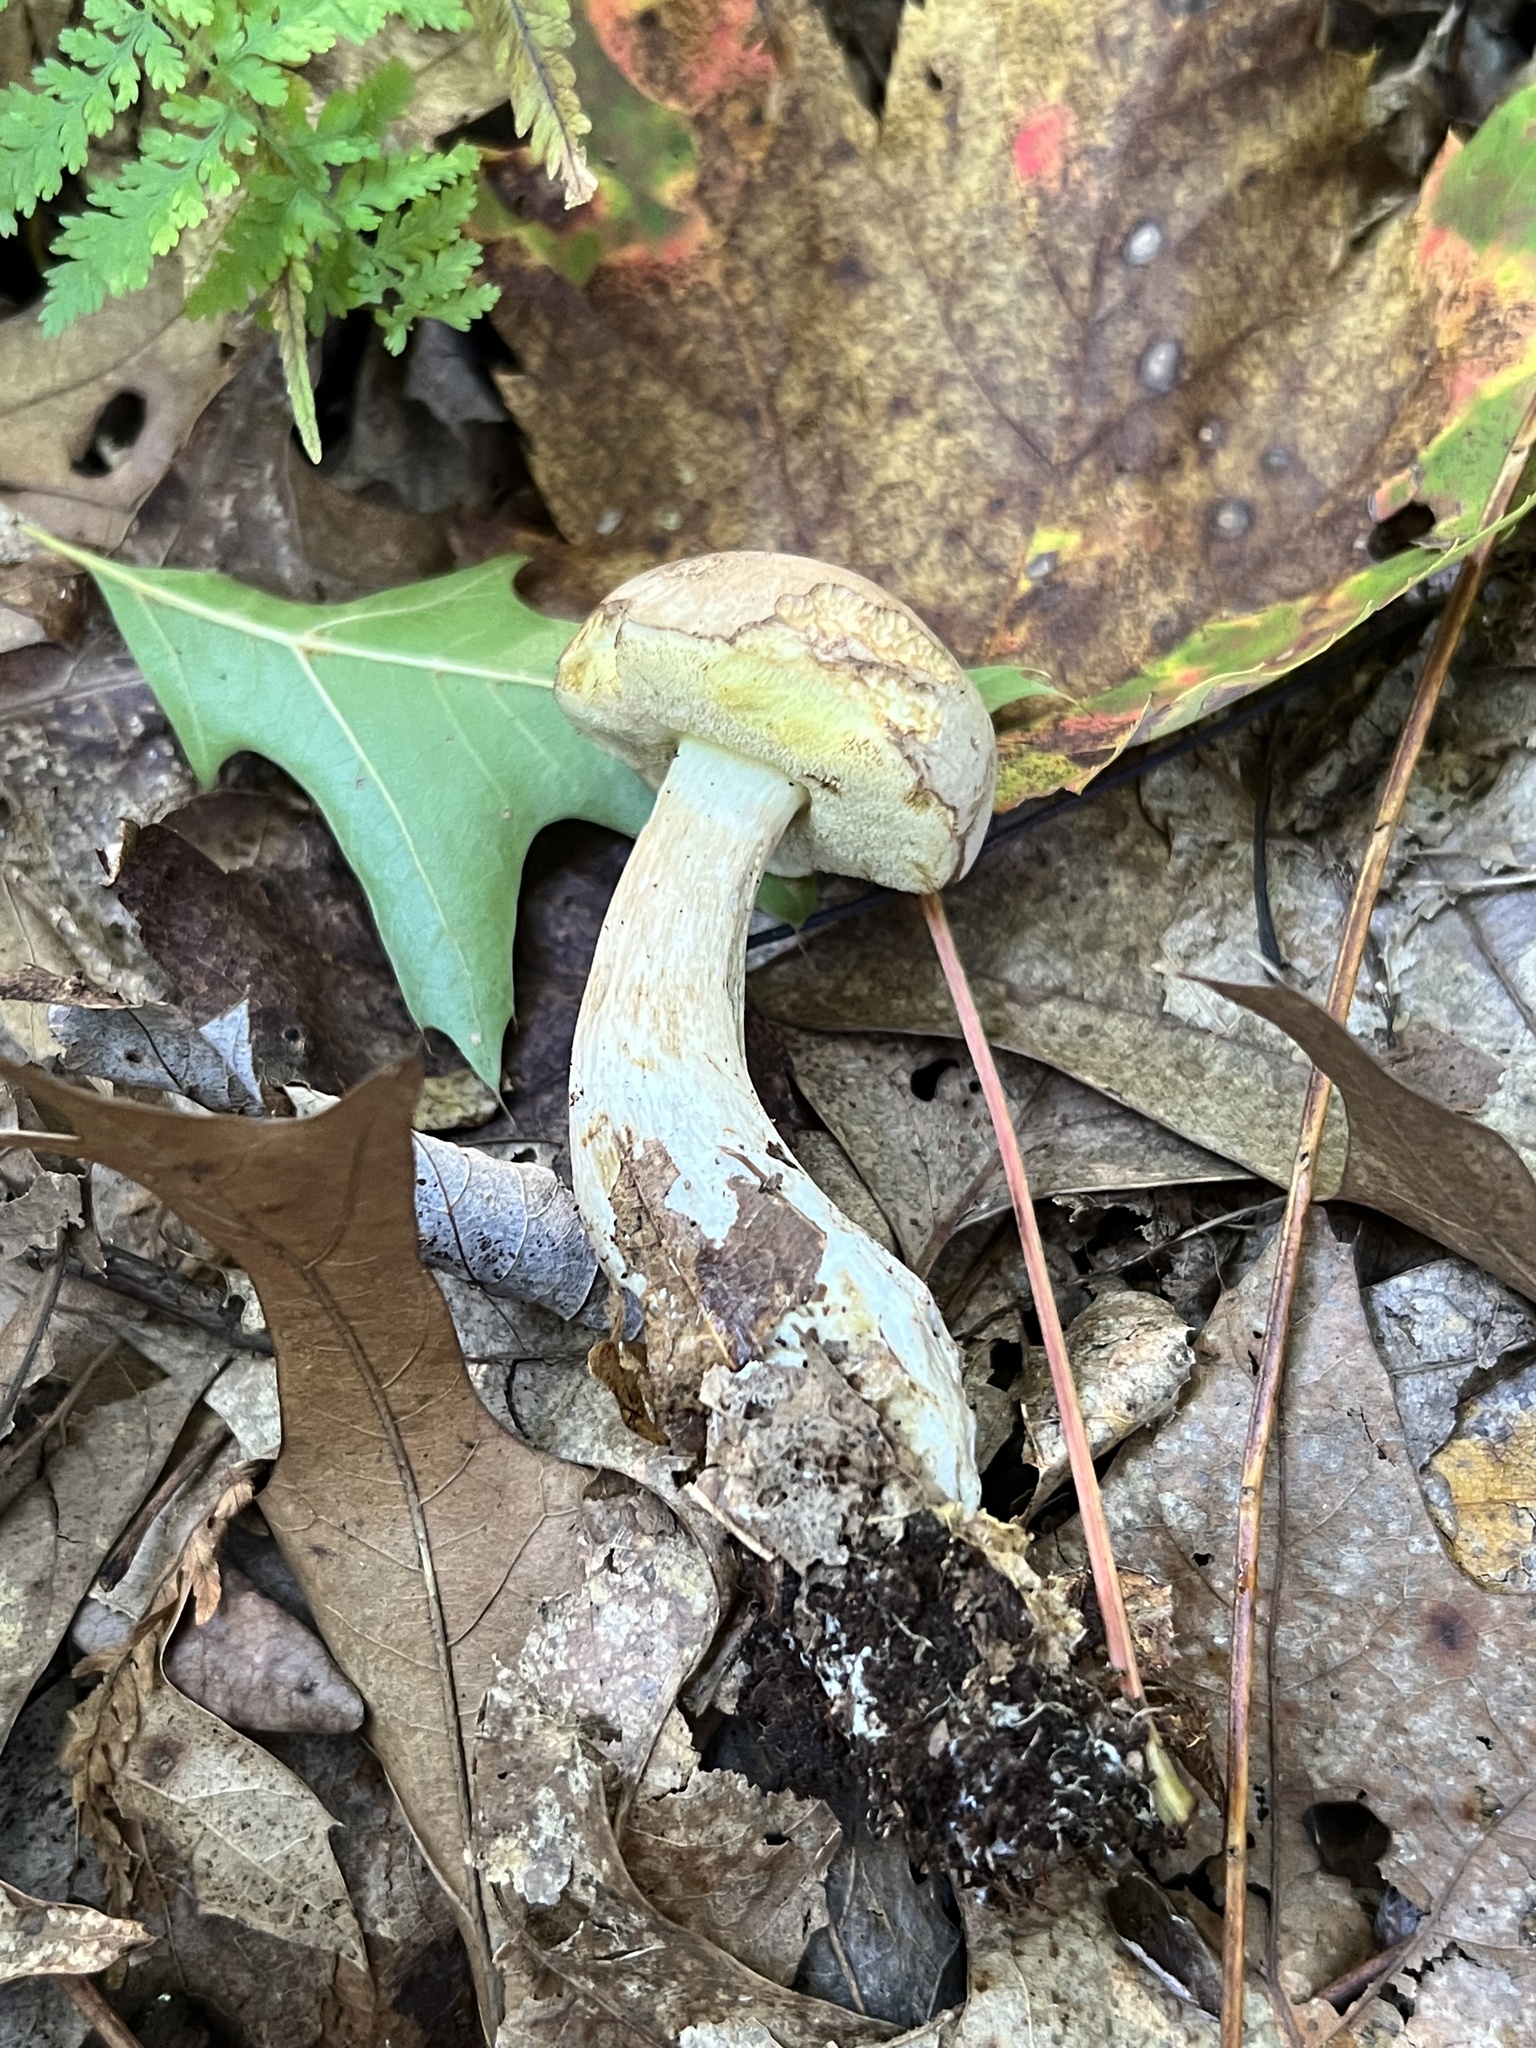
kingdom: Fungi
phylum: Basidiomycota
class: Agaricomycetes
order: Boletales
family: Boletaceae
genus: Imleria
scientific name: Imleria pallida
